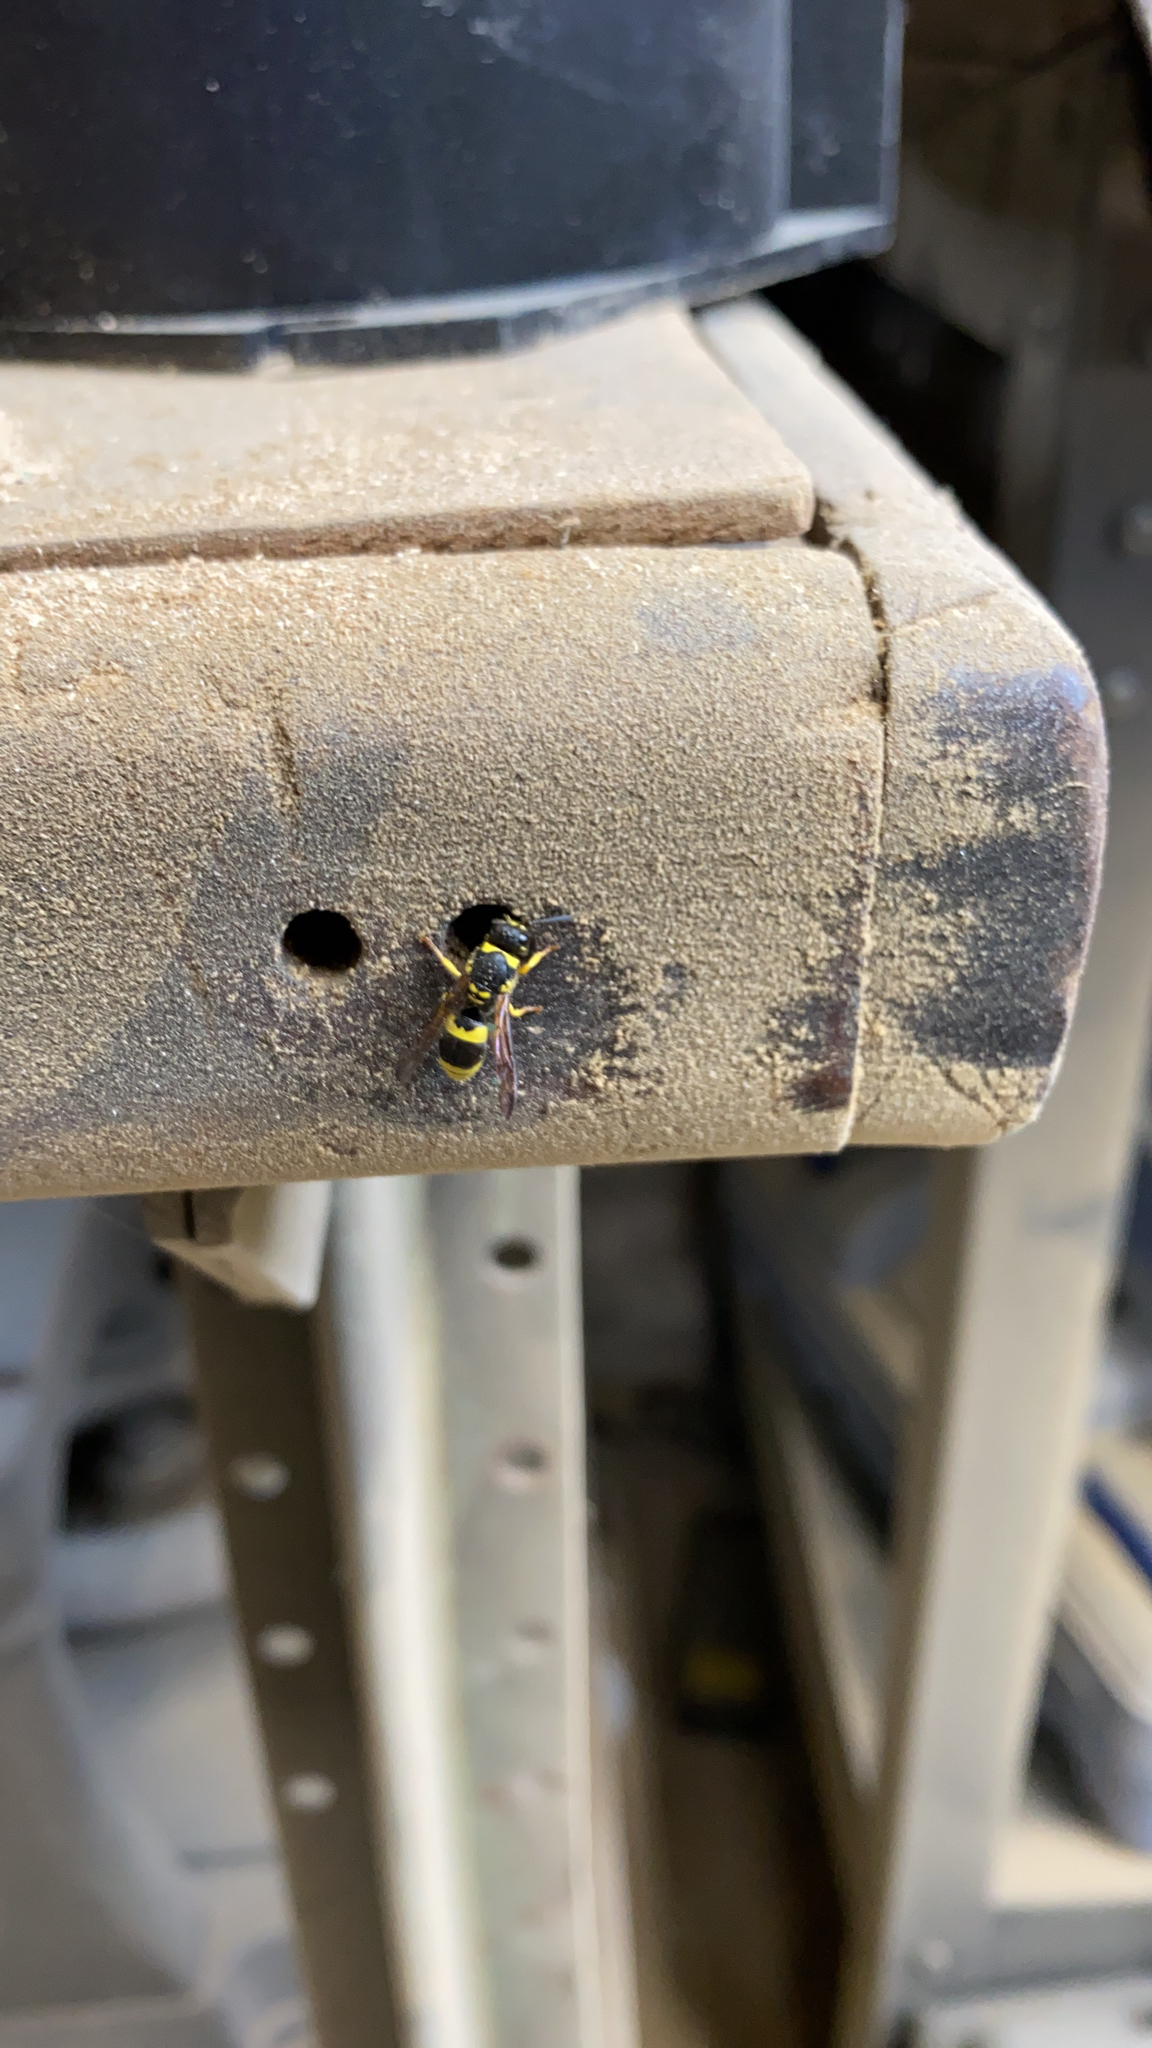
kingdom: Animalia
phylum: Arthropoda
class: Insecta
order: Hymenoptera
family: Vespidae
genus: Ancistrocerus
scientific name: Ancistrocerus gazella
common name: European tube wasp
